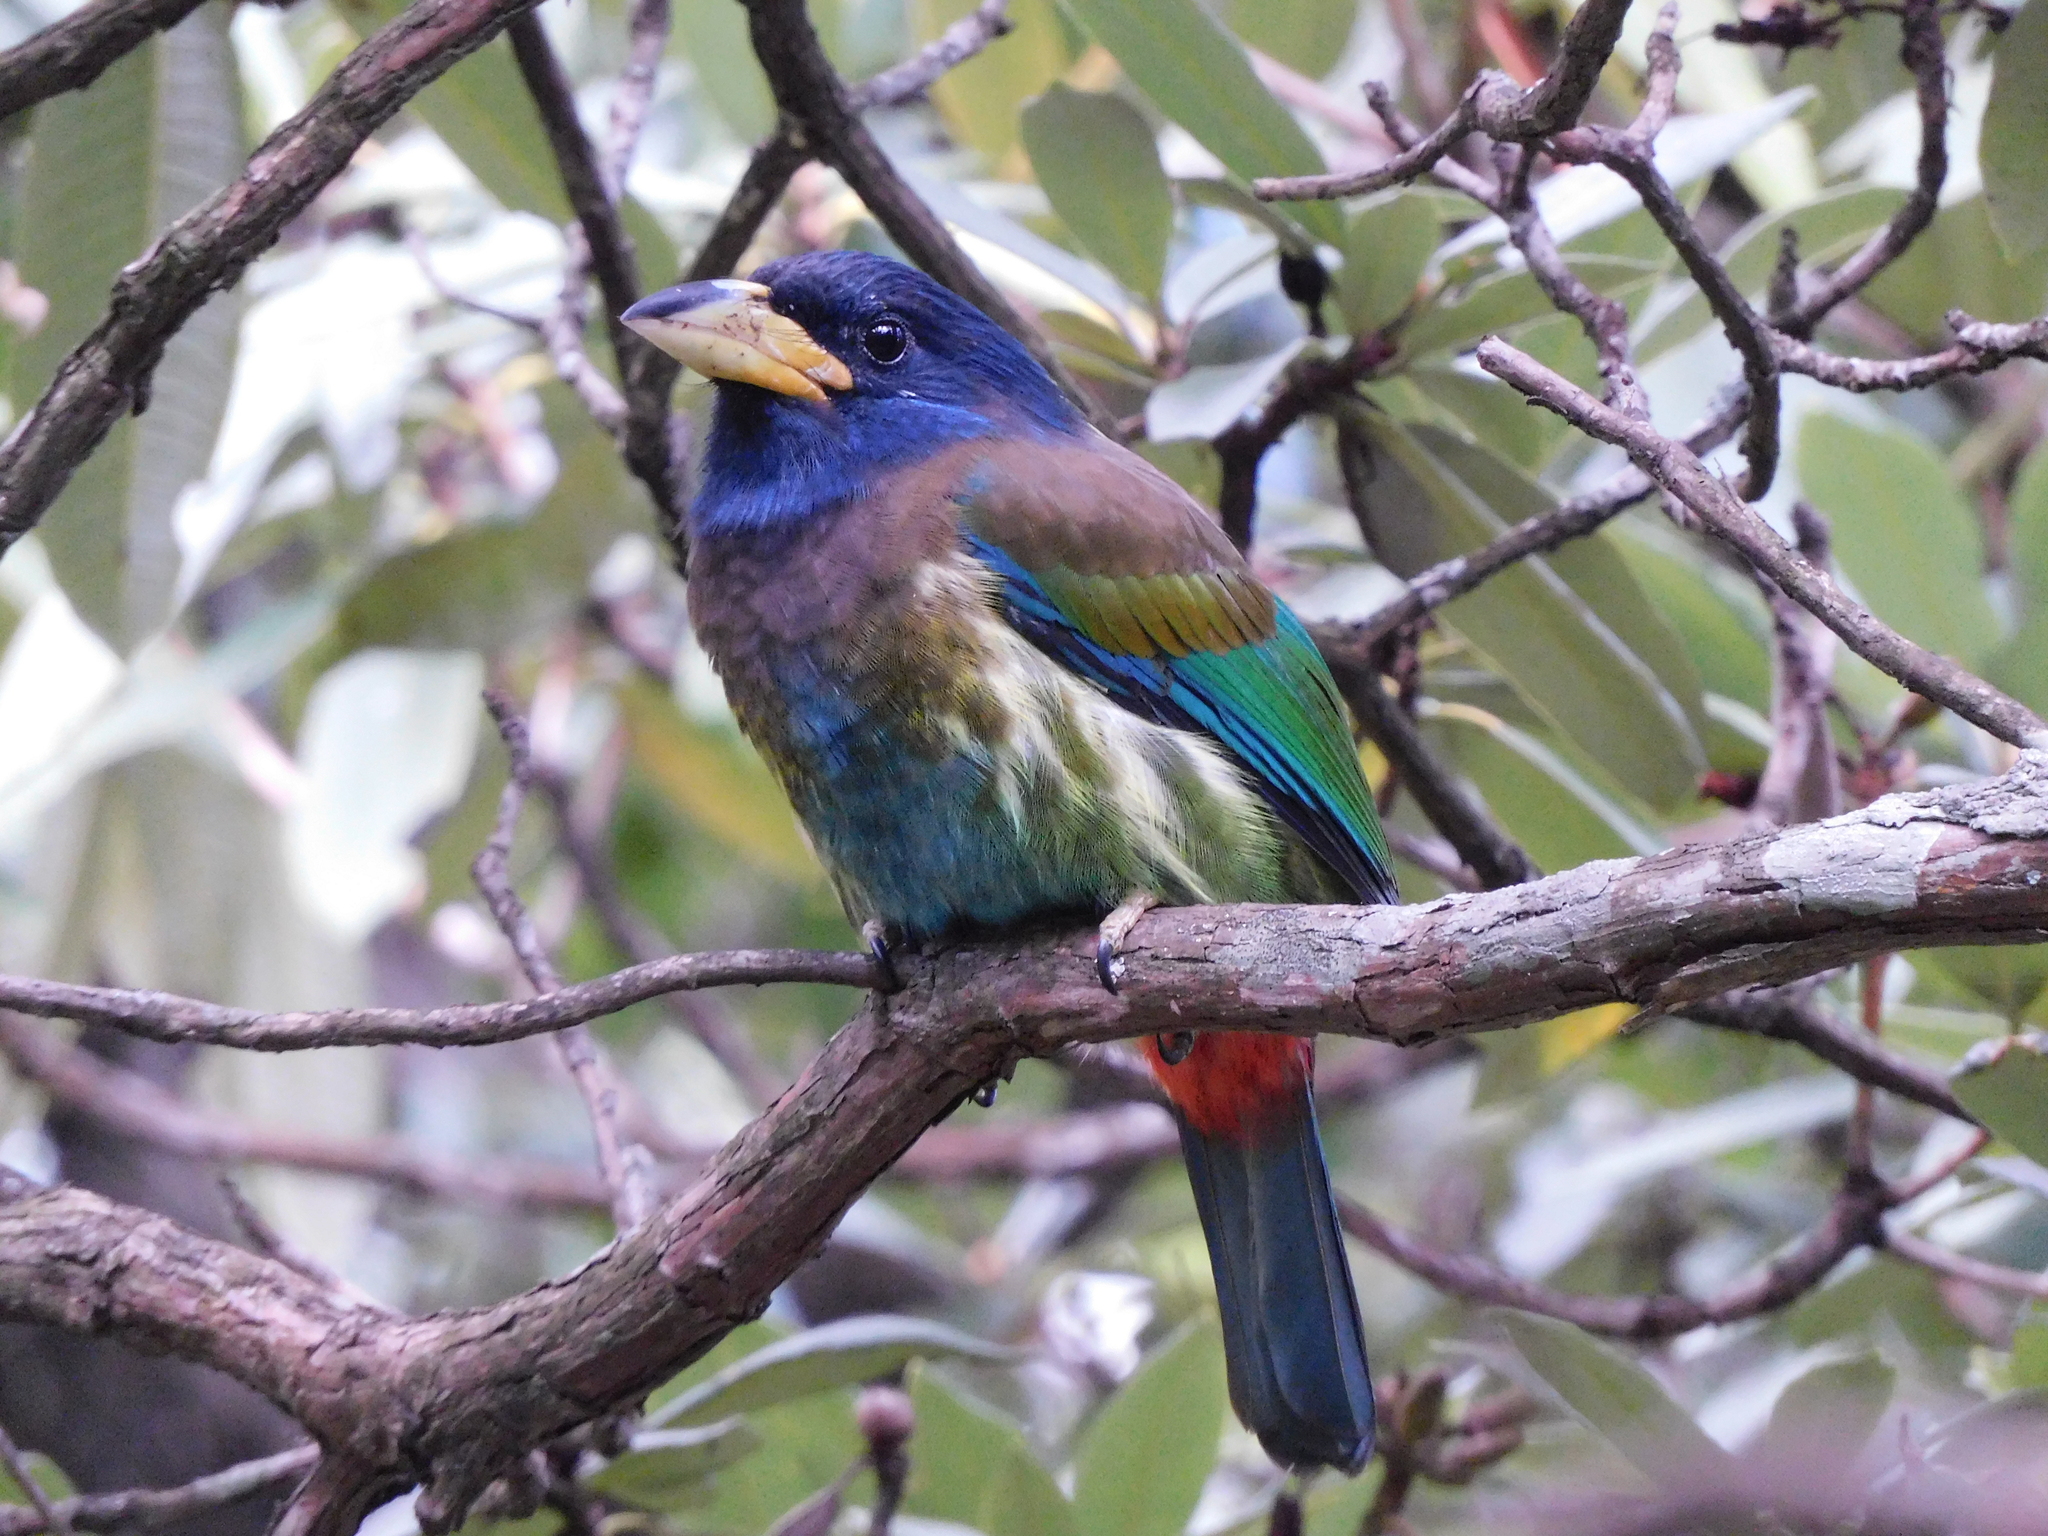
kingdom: Animalia
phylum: Chordata
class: Aves
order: Piciformes
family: Megalaimidae
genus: Psilopogon
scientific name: Psilopogon virens
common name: Great barbet
